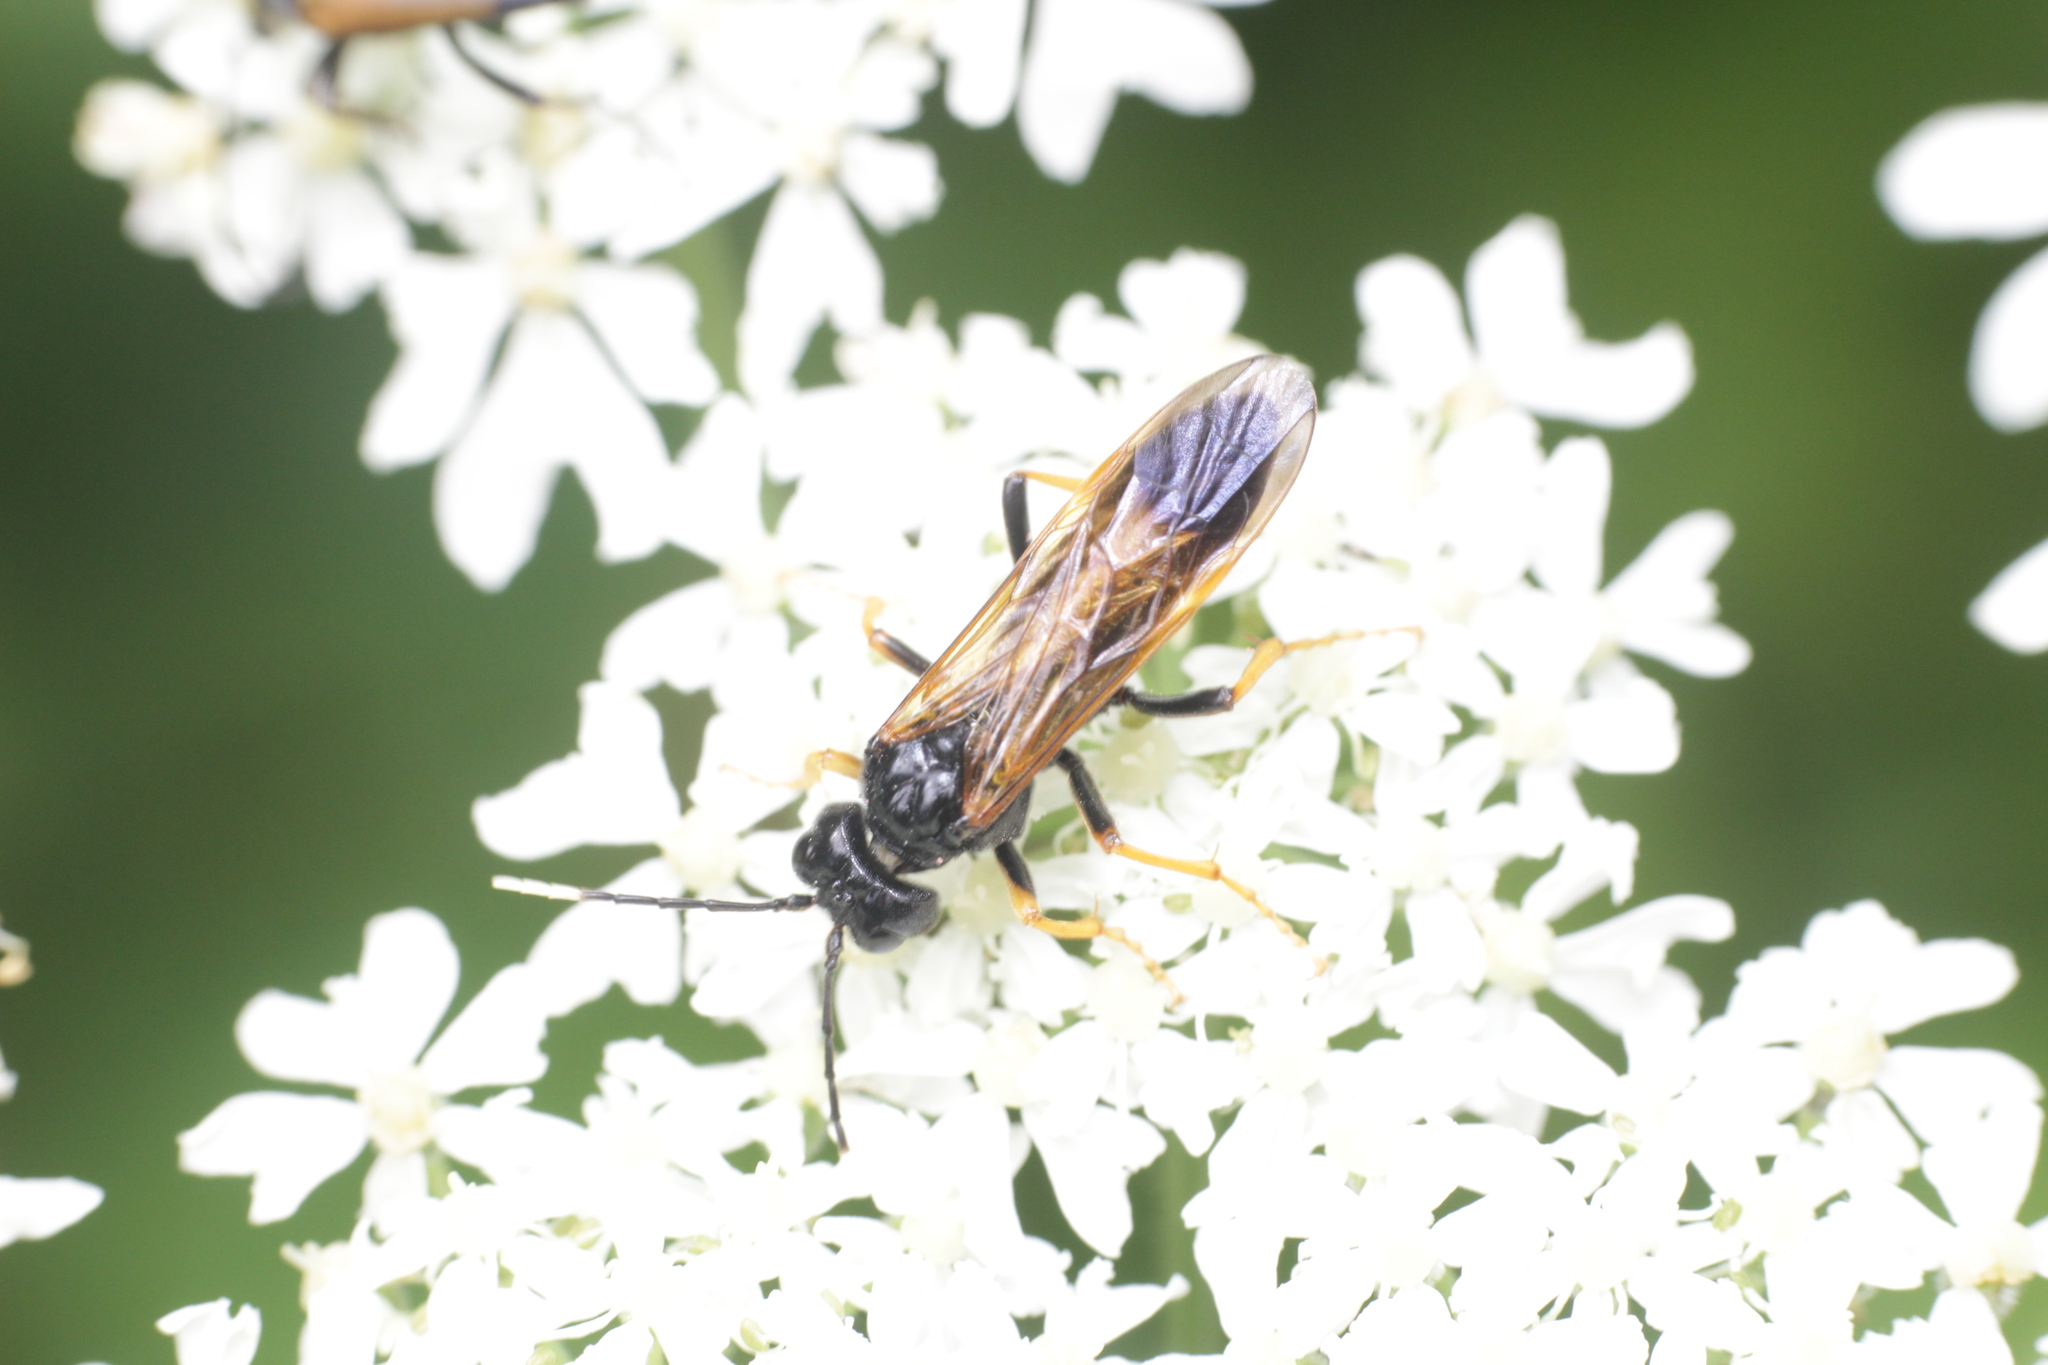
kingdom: Animalia
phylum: Arthropoda
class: Insecta
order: Hymenoptera
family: Tenthredinidae
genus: Tenthredo
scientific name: Tenthredo crassa
